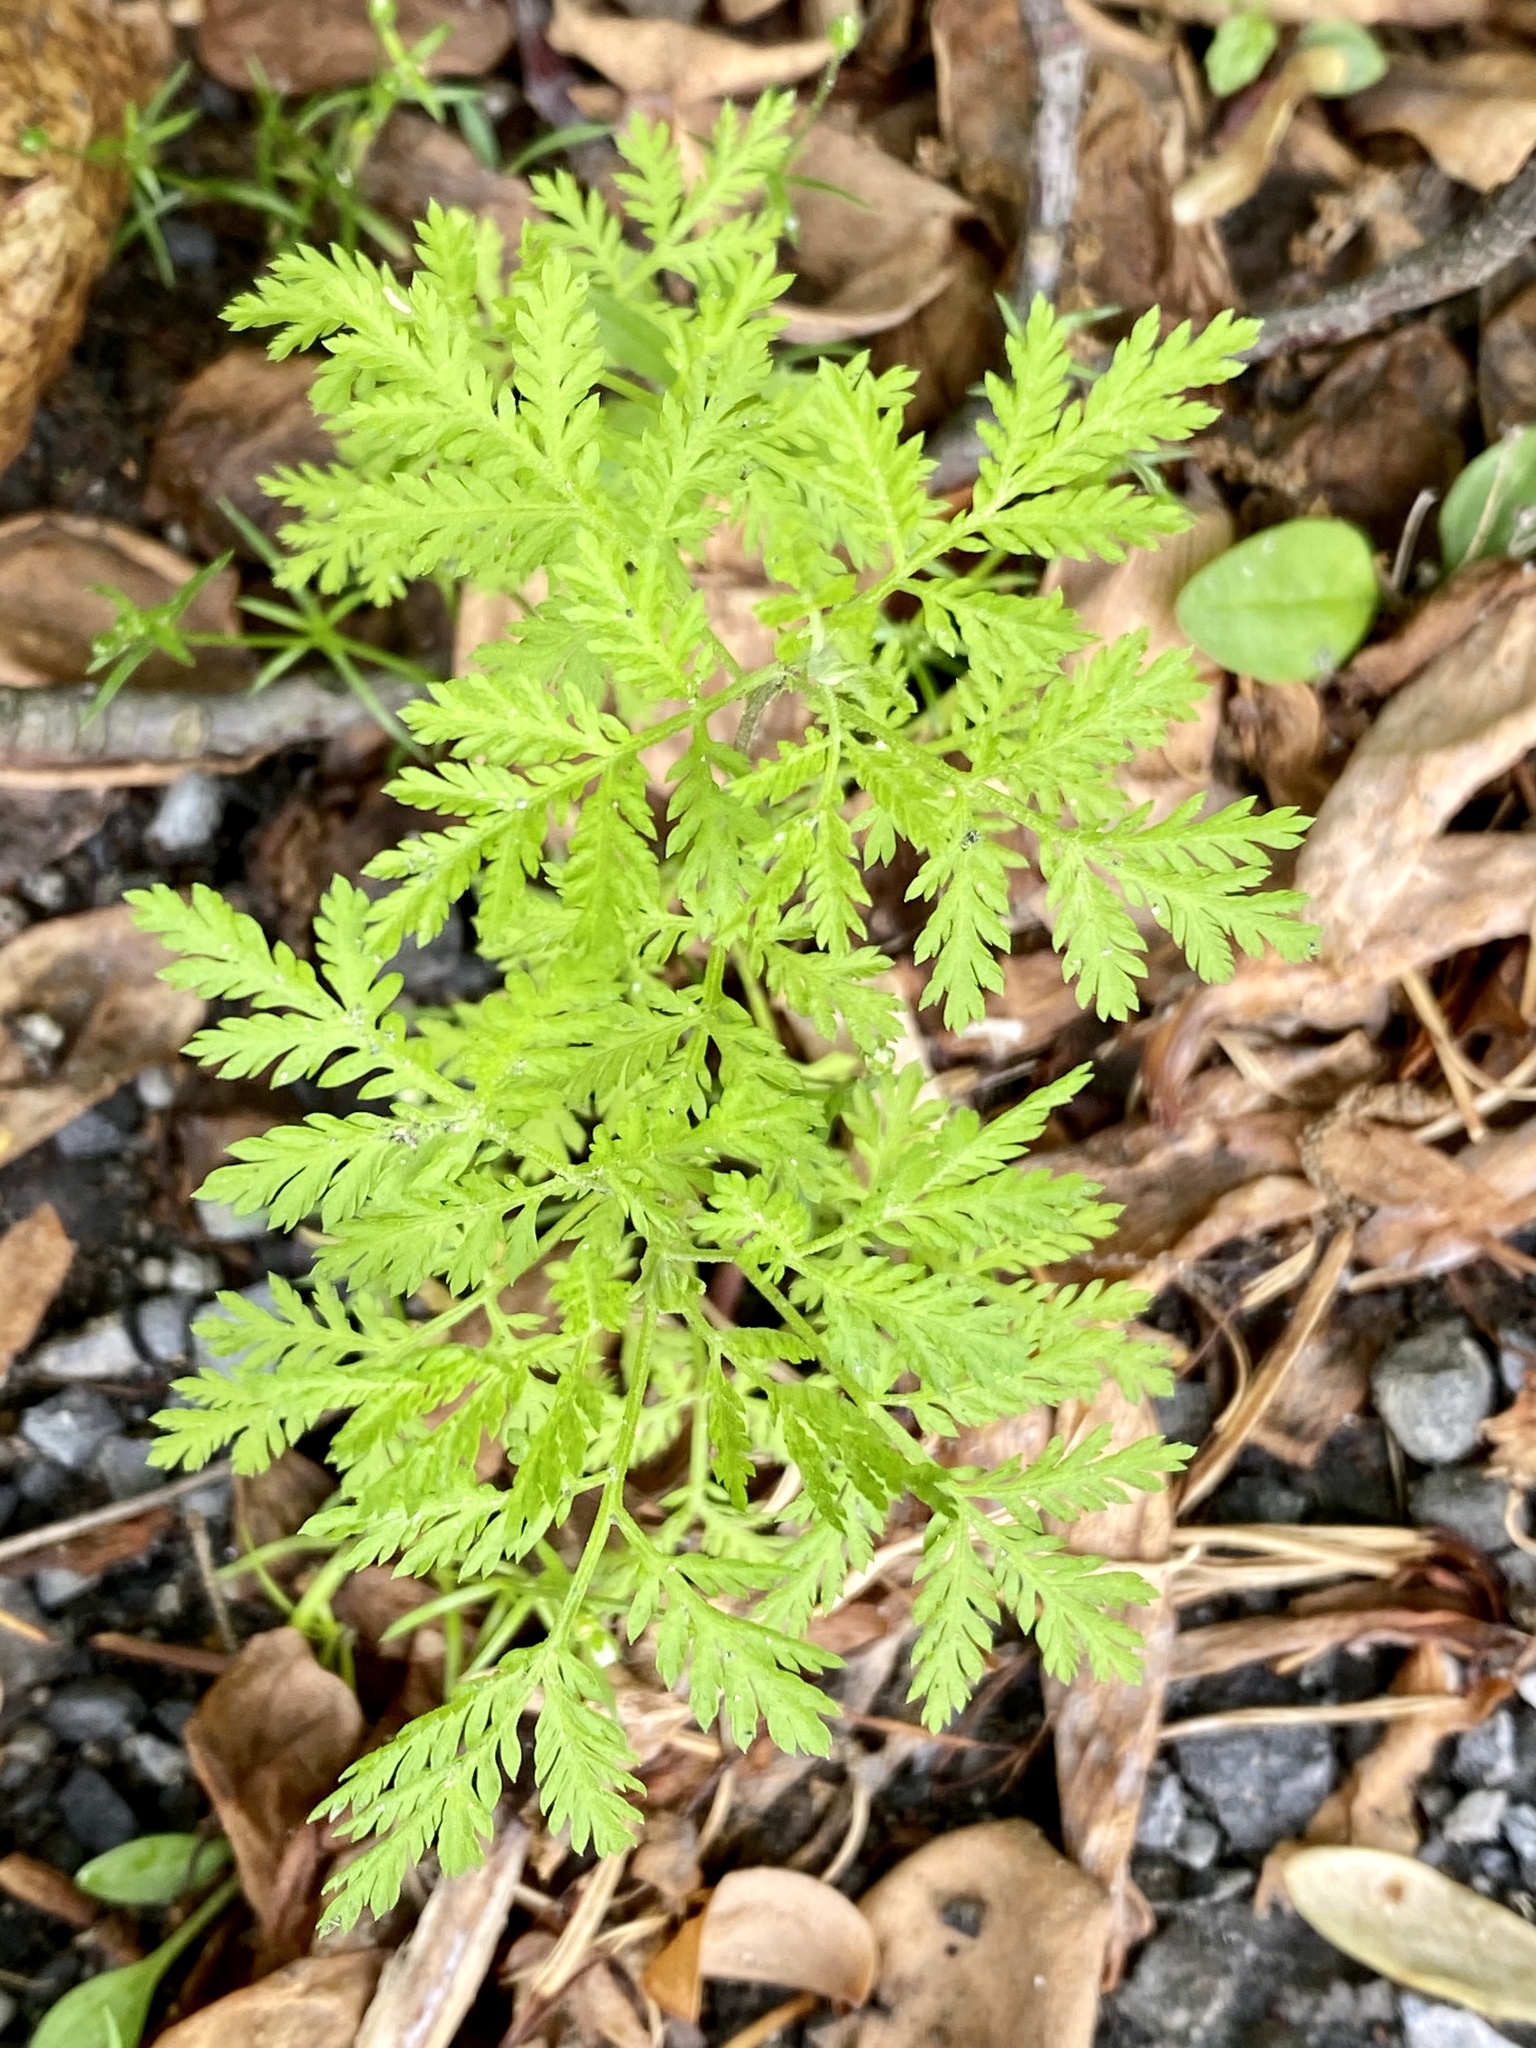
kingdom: Plantae
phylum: Tracheophyta
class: Magnoliopsida
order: Asterales
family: Asteraceae
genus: Artemisia
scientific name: Artemisia annua
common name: Sweet sagewort
